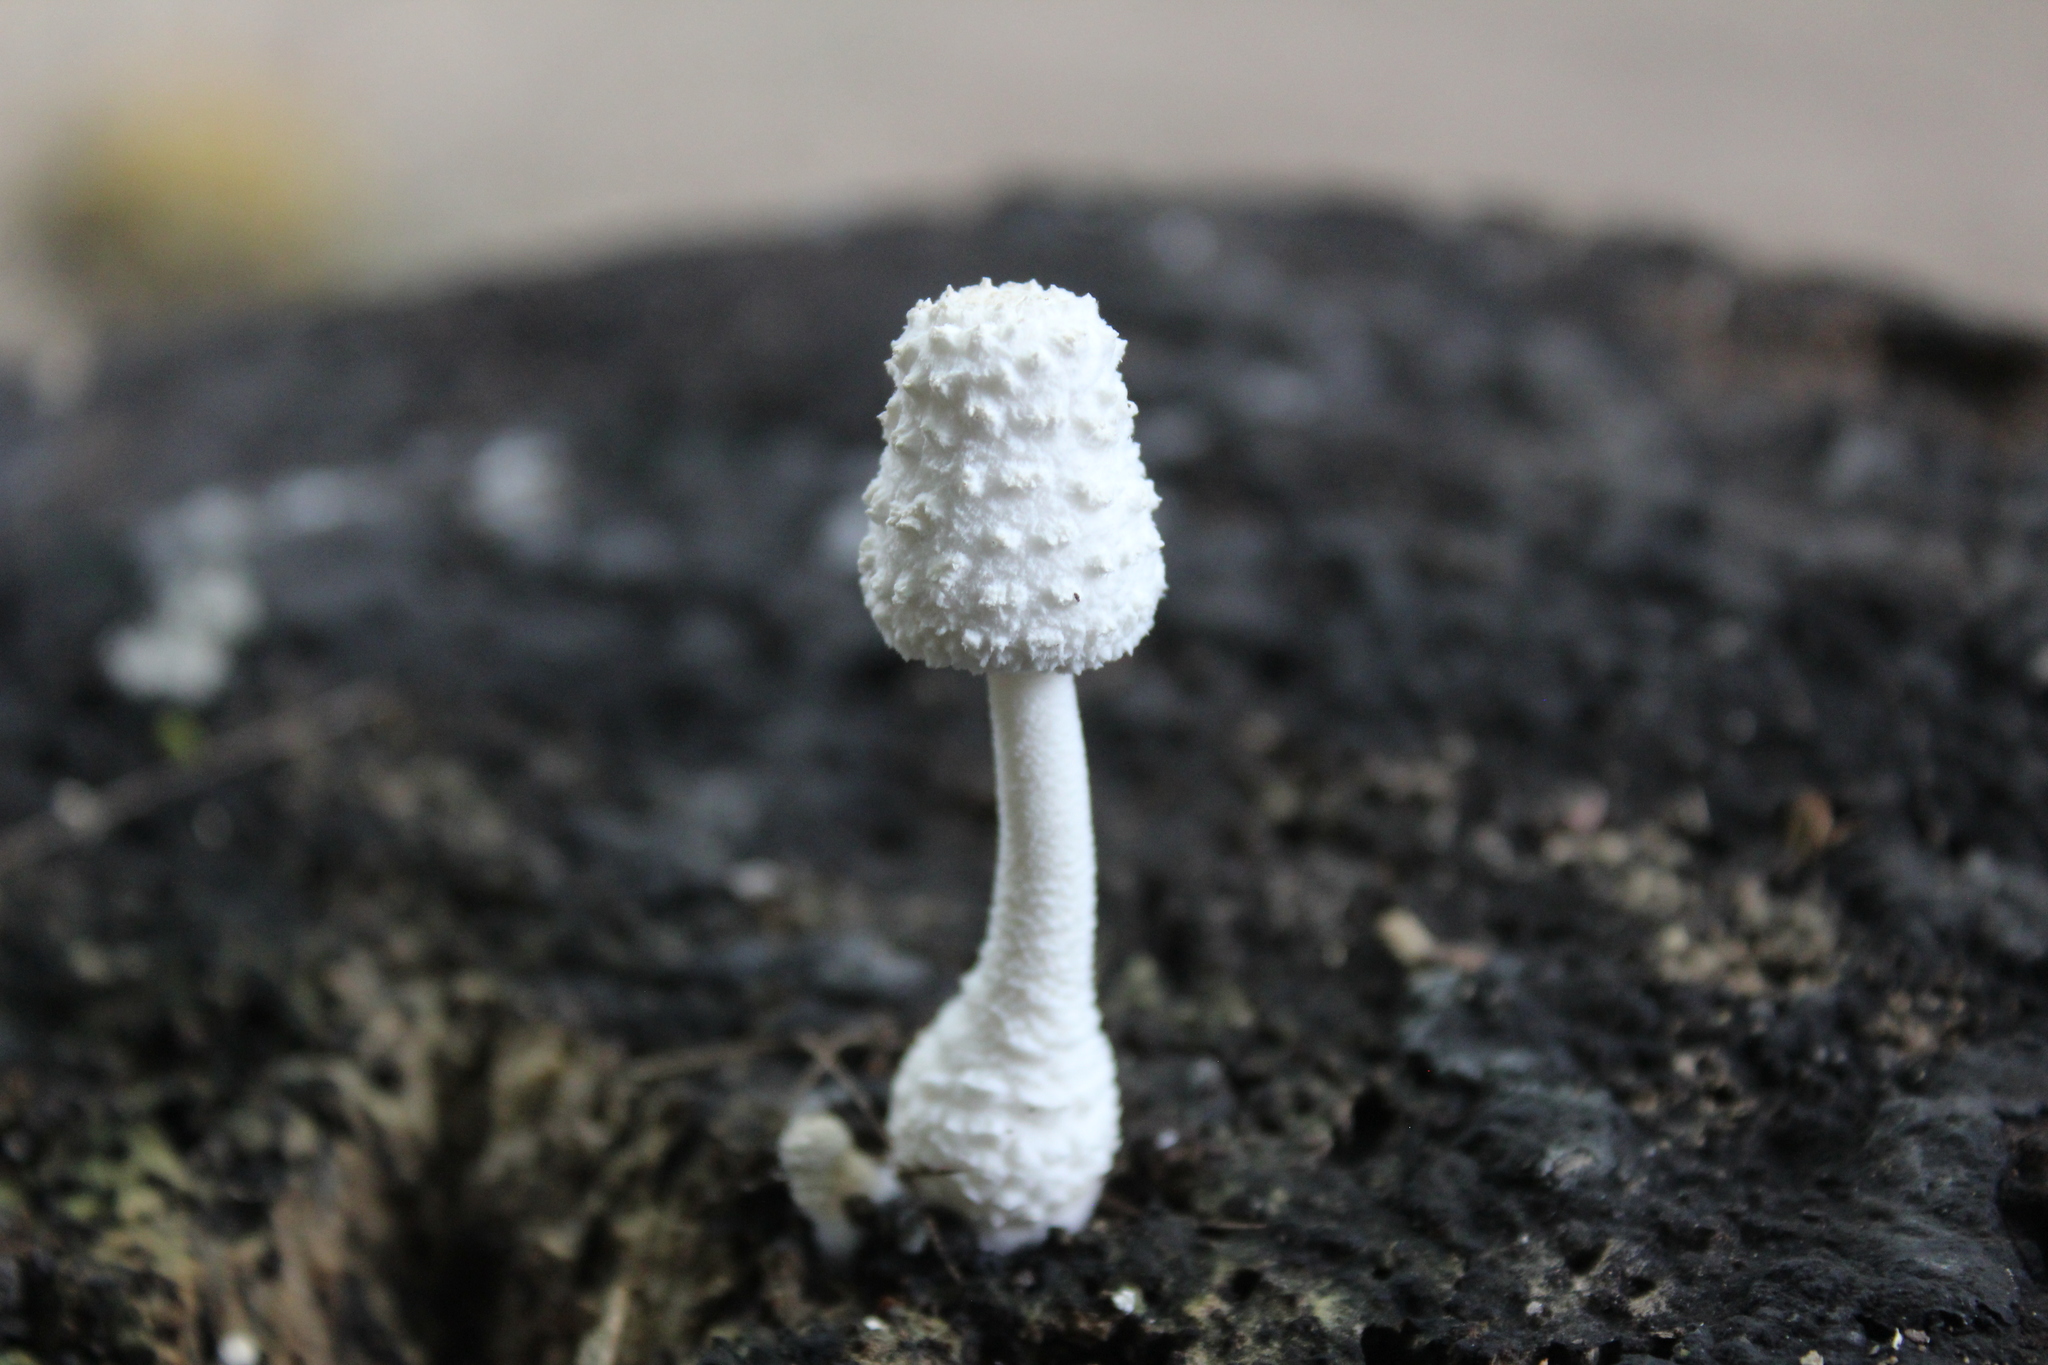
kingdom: Fungi
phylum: Basidiomycota
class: Agaricomycetes
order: Agaricales
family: Agaricaceae
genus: Leucocoprinus
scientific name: Leucocoprinus cretaceus
